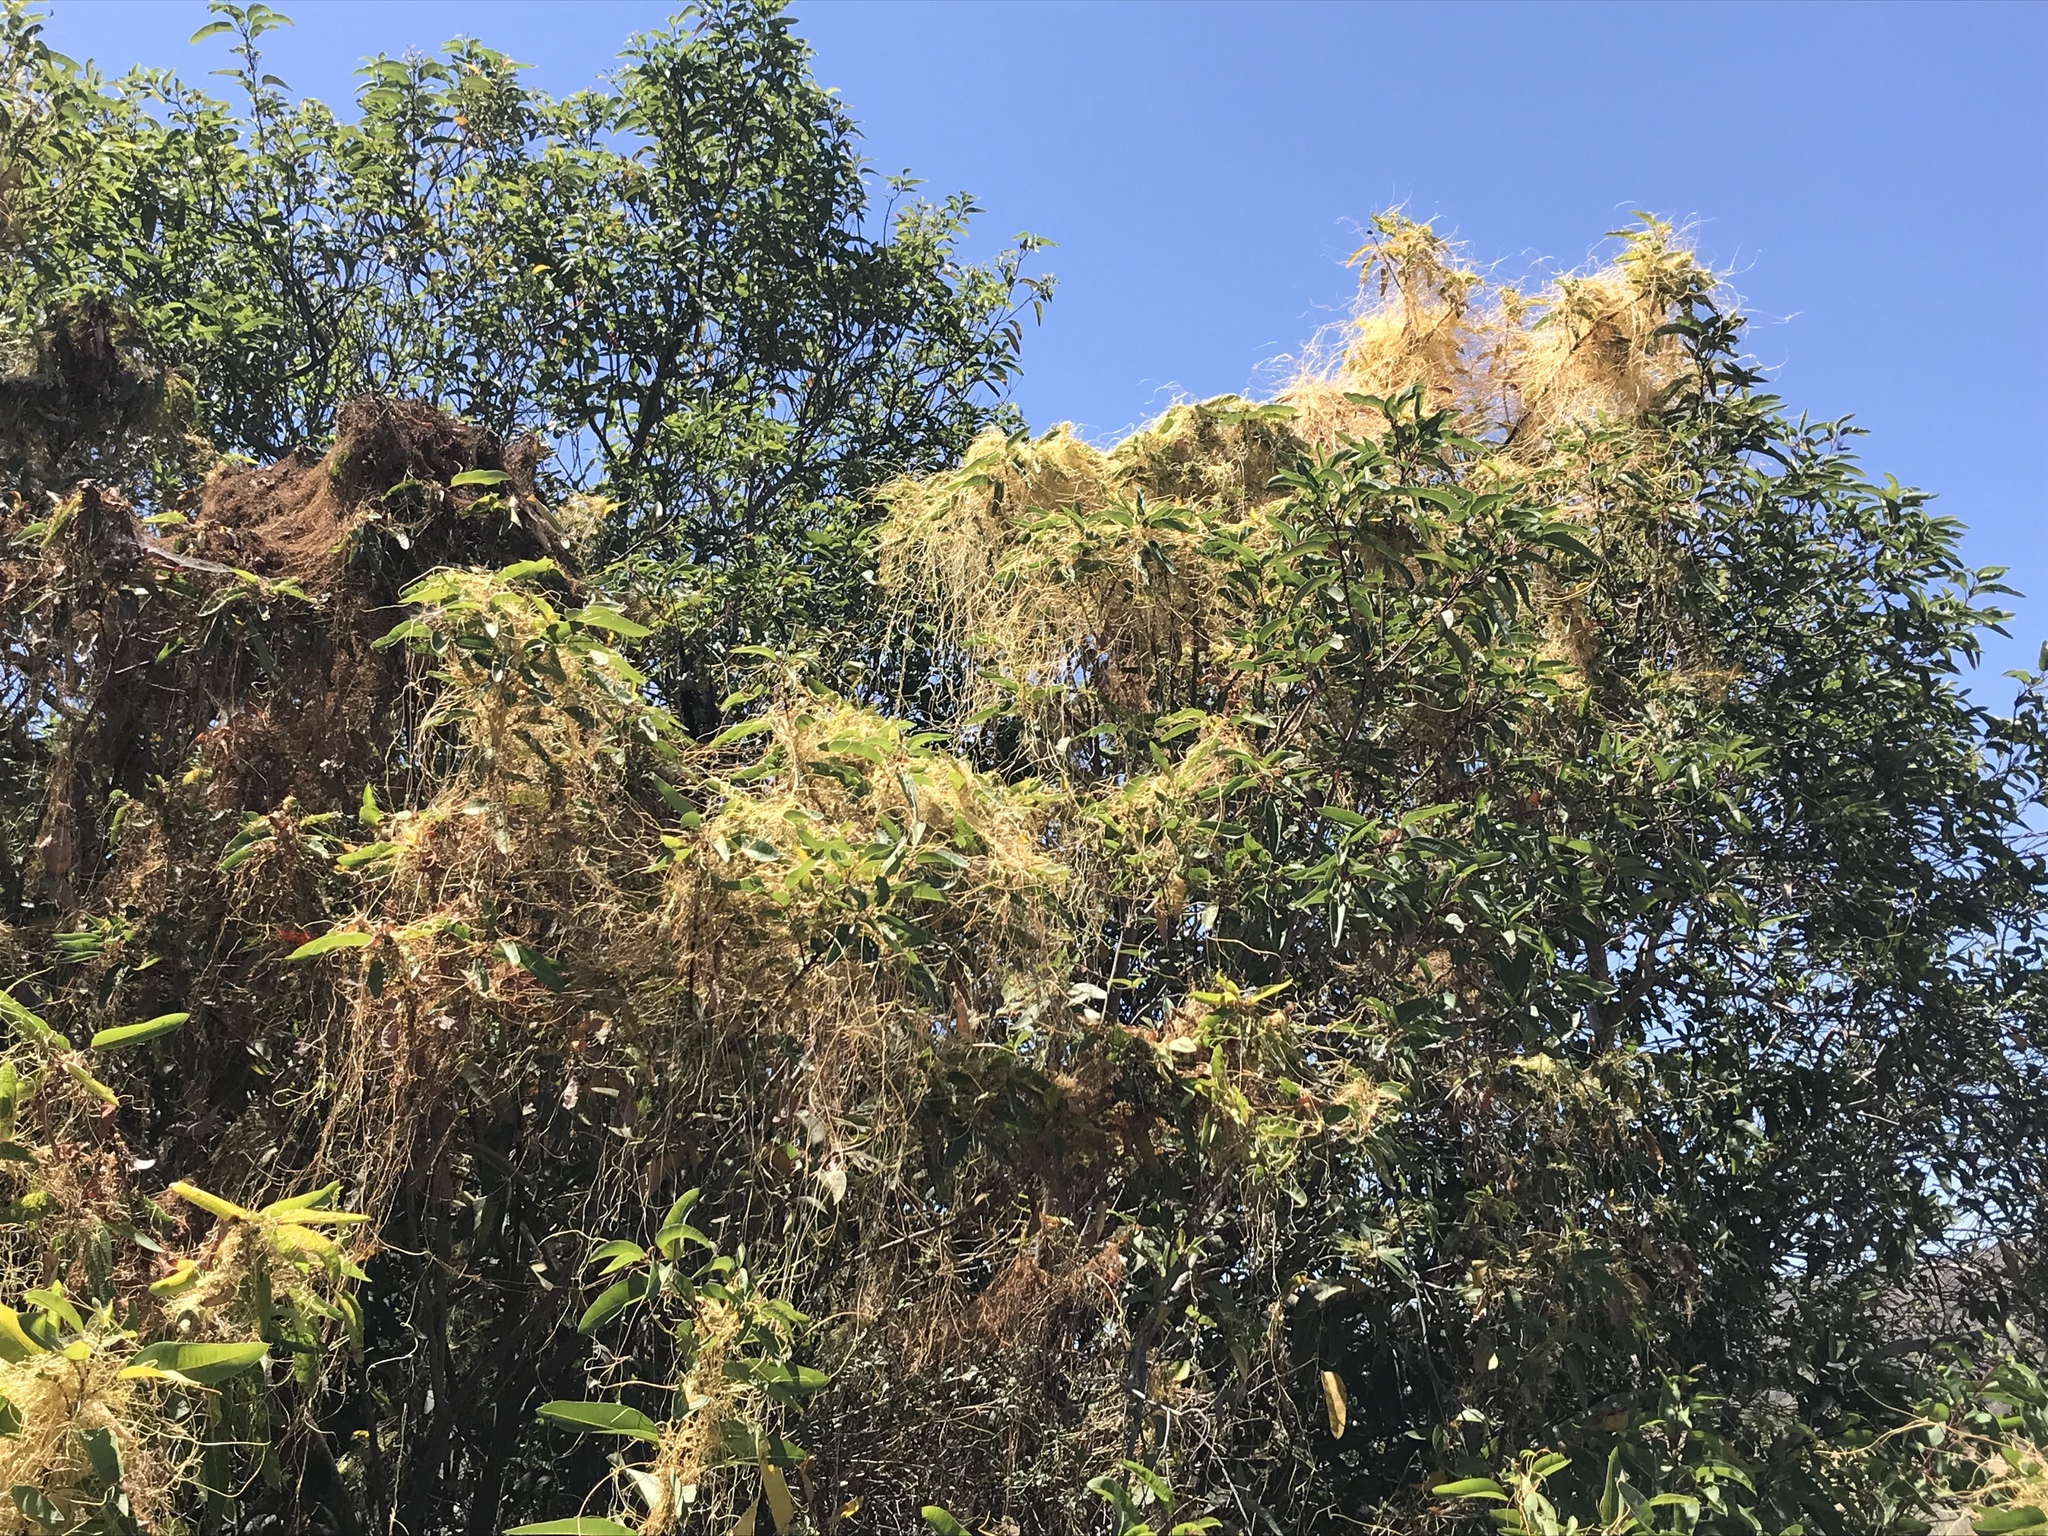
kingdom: Plantae
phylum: Tracheophyta
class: Magnoliopsida
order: Solanales
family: Convolvulaceae
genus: Cuscuta
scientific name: Cuscuta subinclusa
